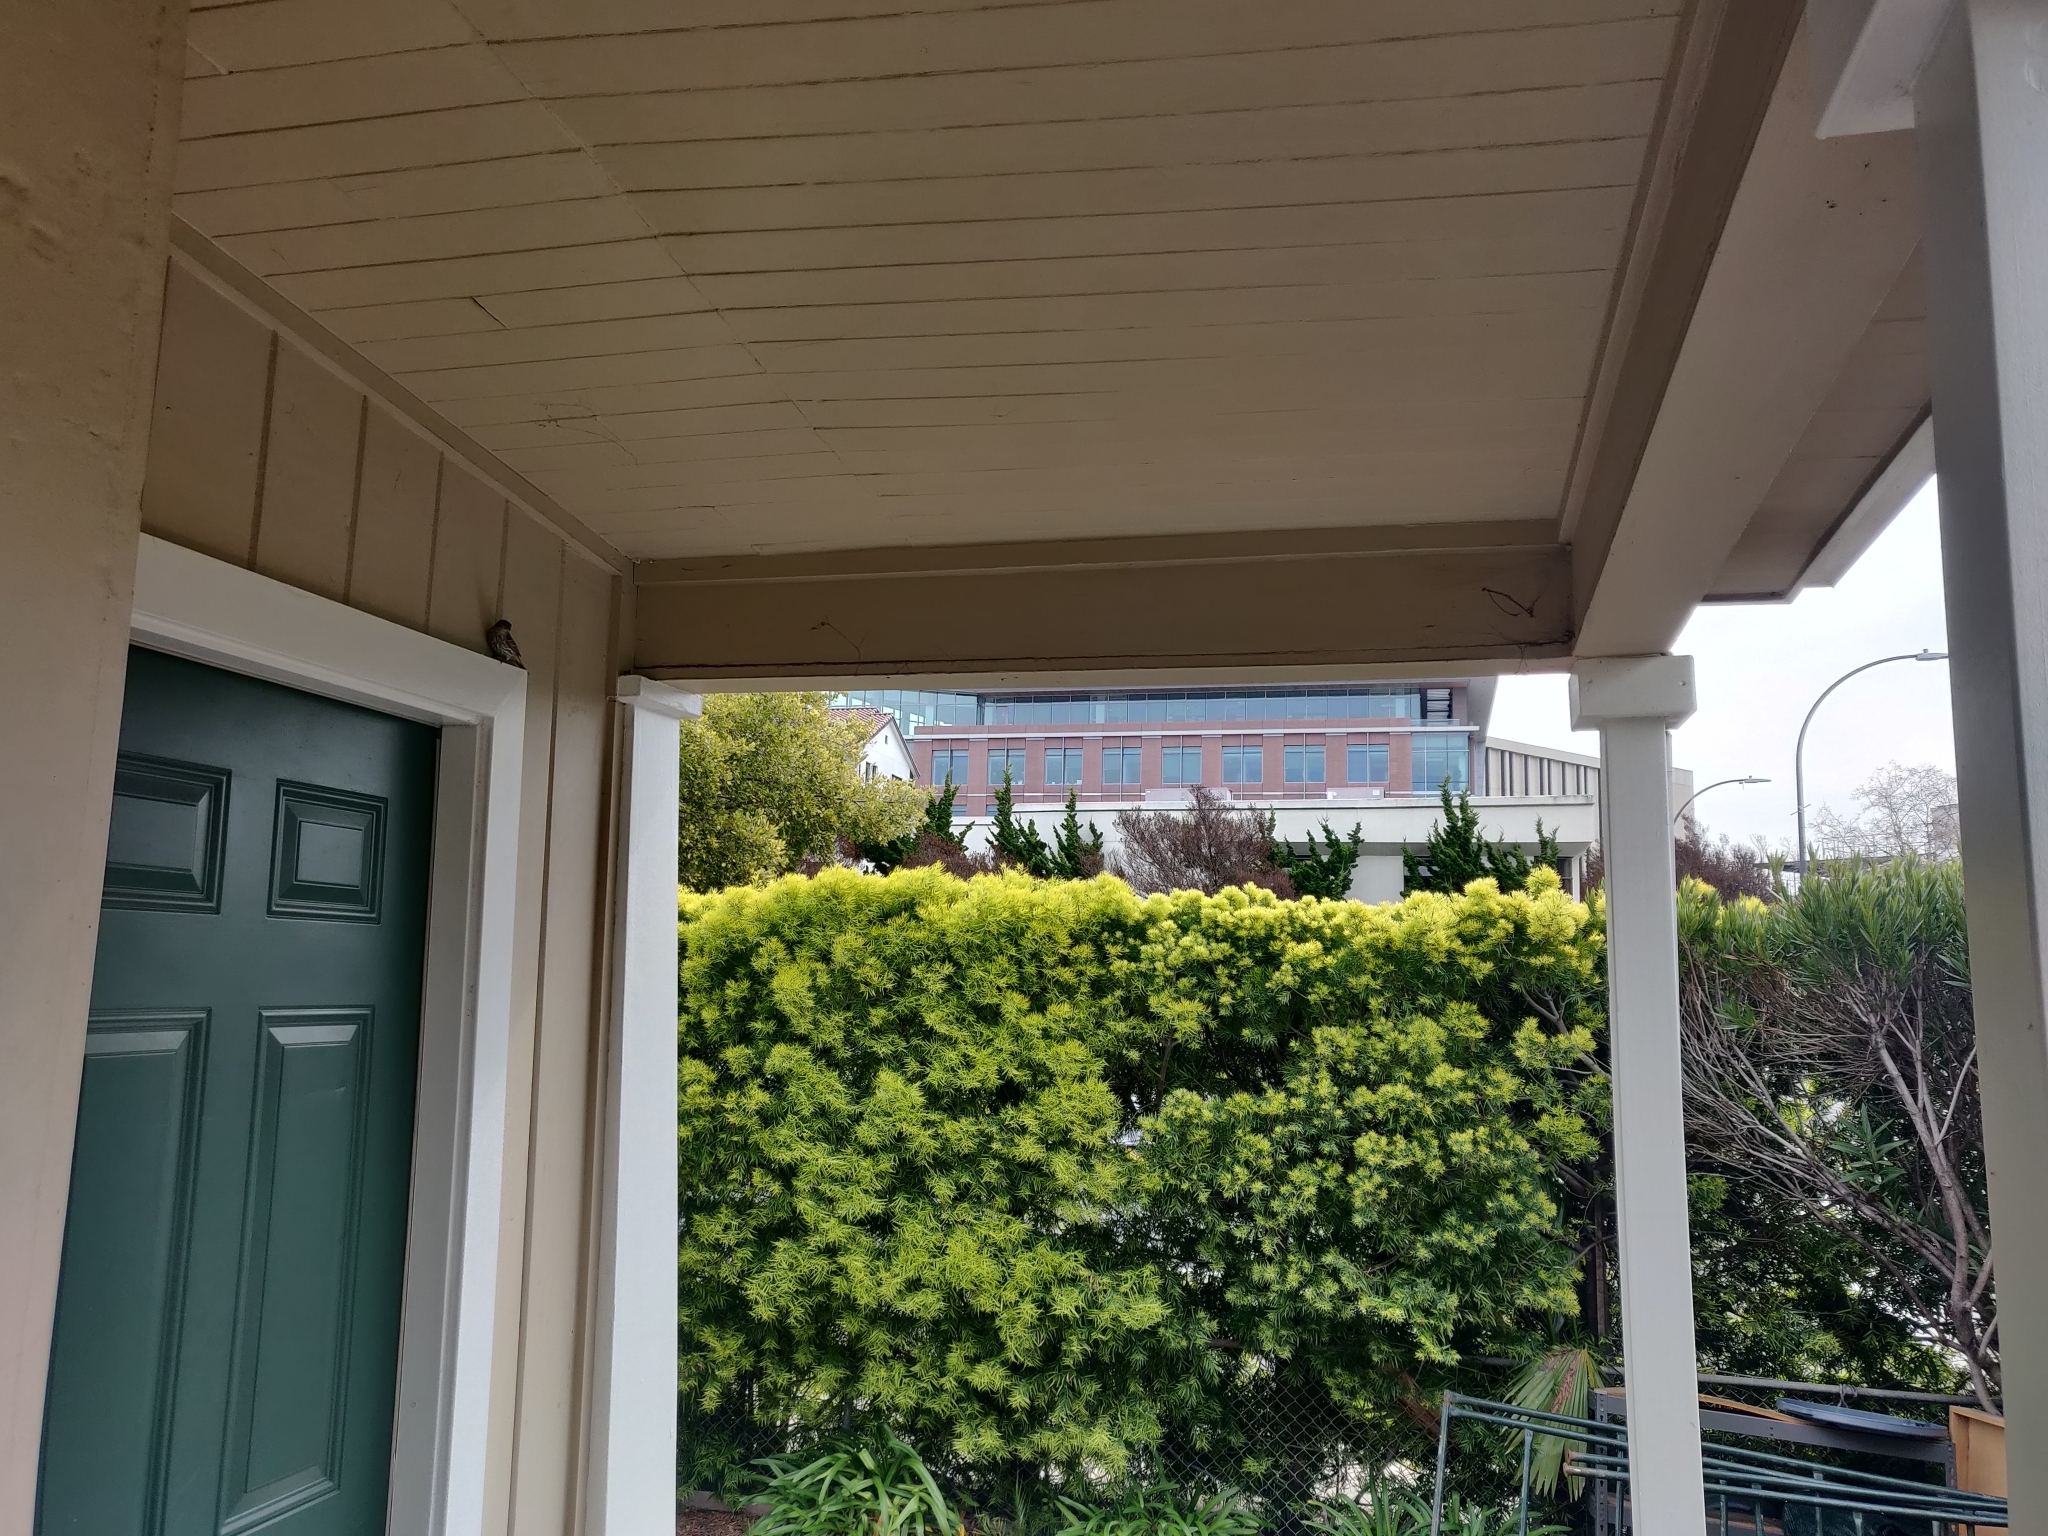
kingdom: Animalia
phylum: Chordata
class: Aves
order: Passeriformes
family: Fringillidae
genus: Haemorhous
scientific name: Haemorhous mexicanus
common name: House finch
